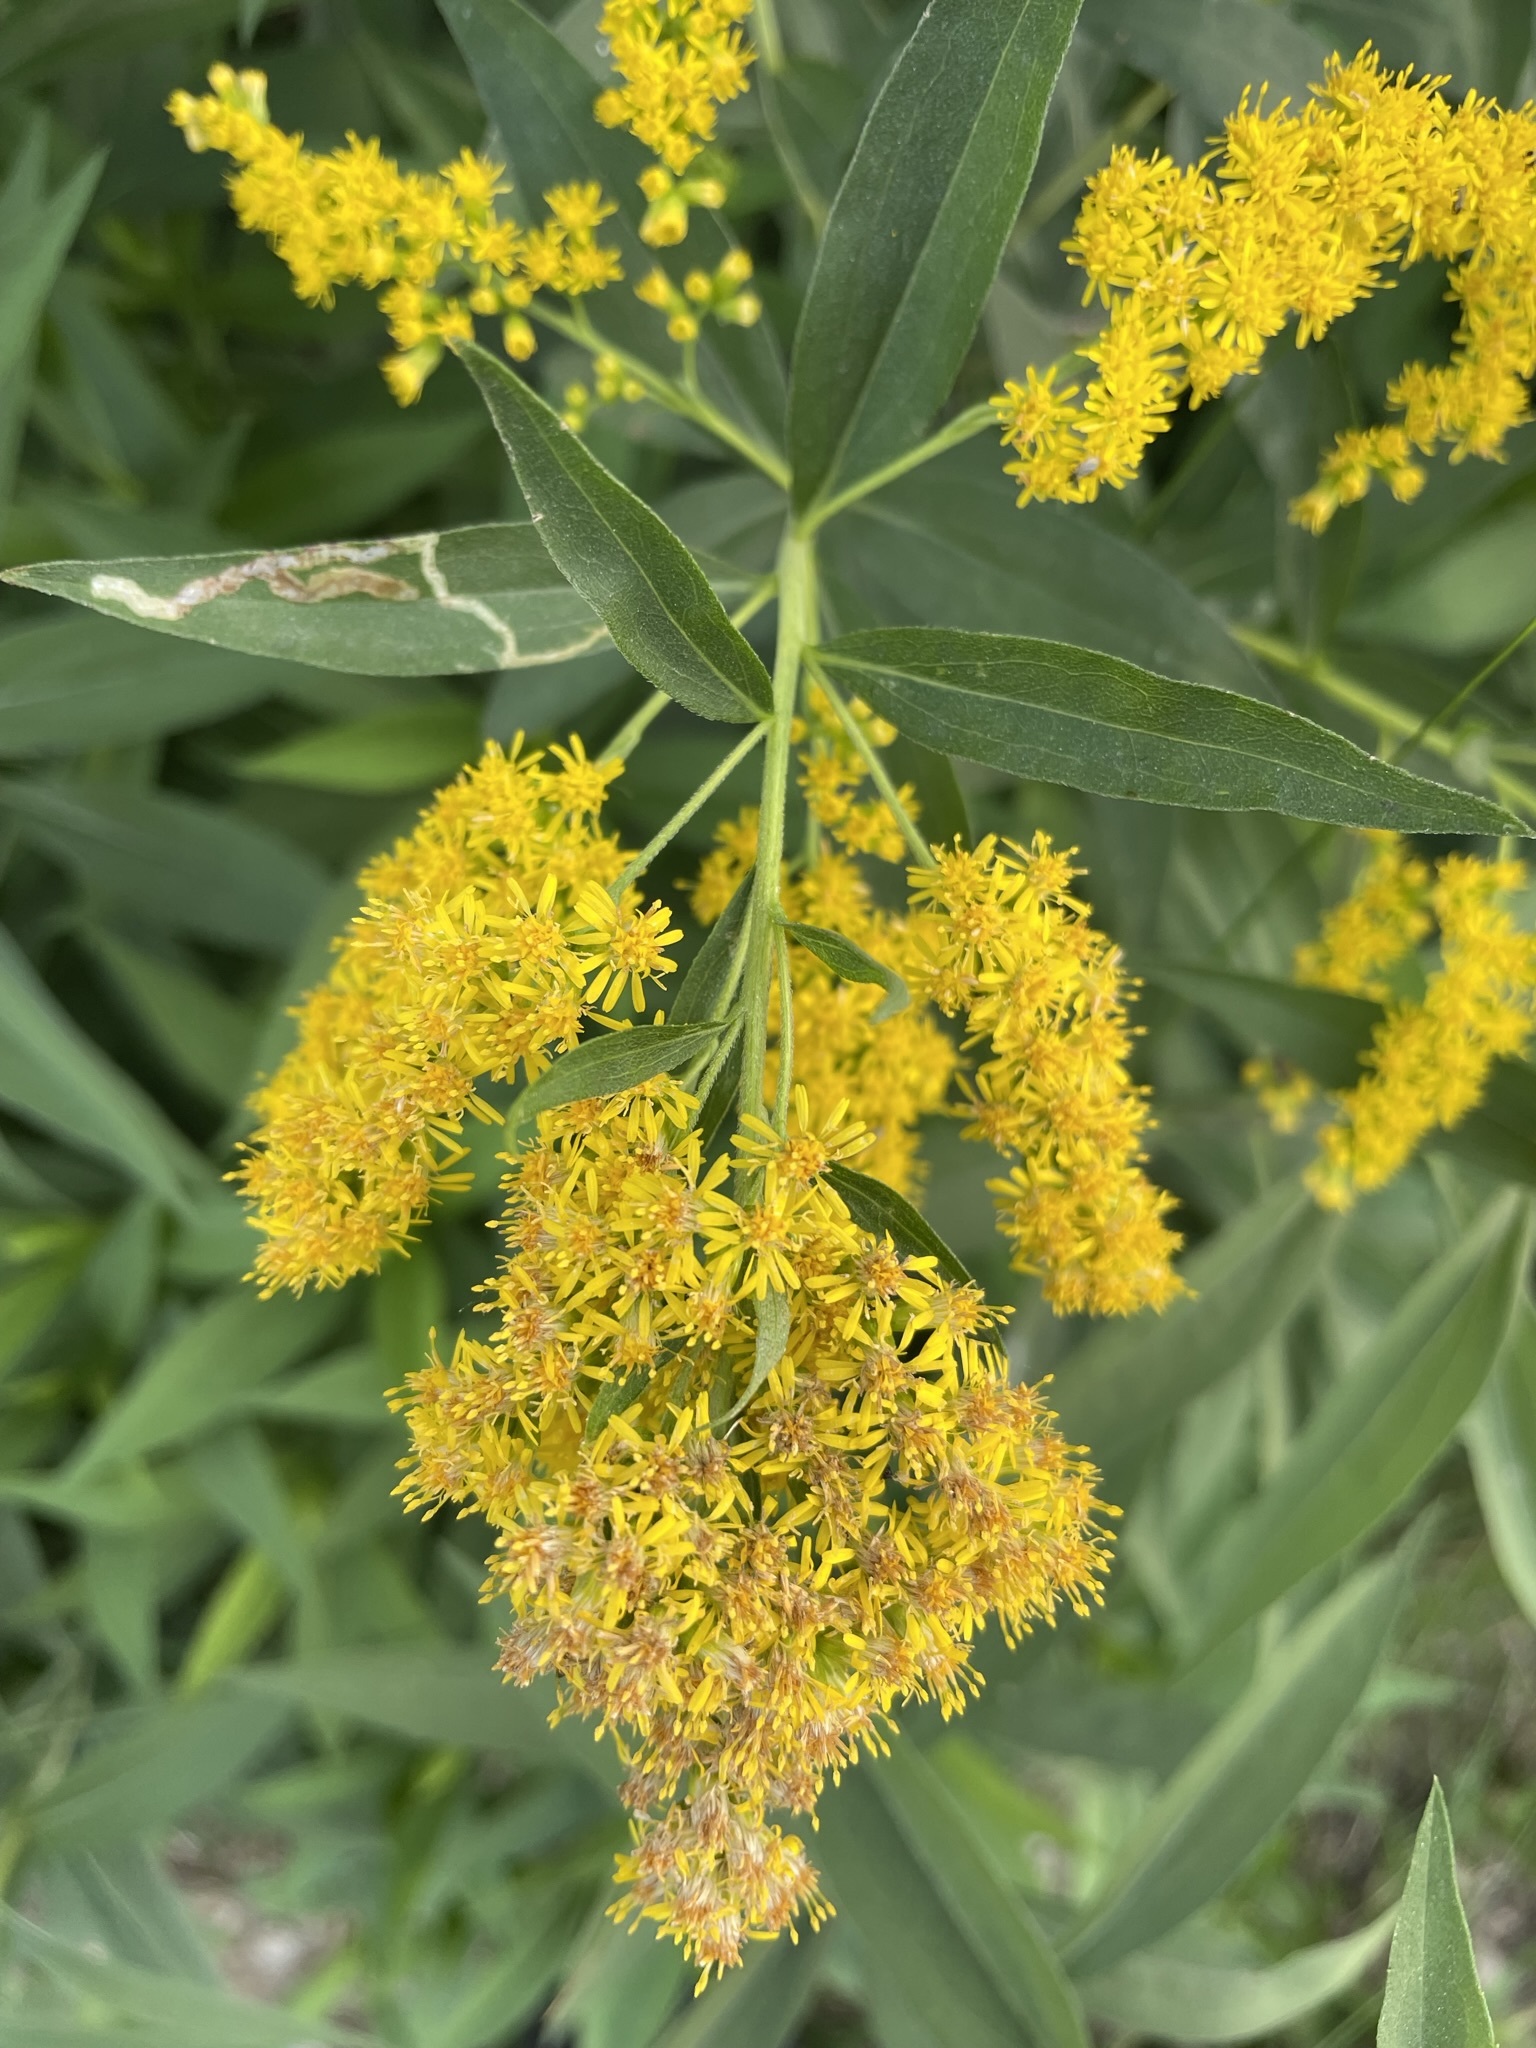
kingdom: Plantae
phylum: Tracheophyta
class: Magnoliopsida
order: Asterales
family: Asteraceae
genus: Solidago
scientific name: Solidago gigantea
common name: Giant goldenrod
